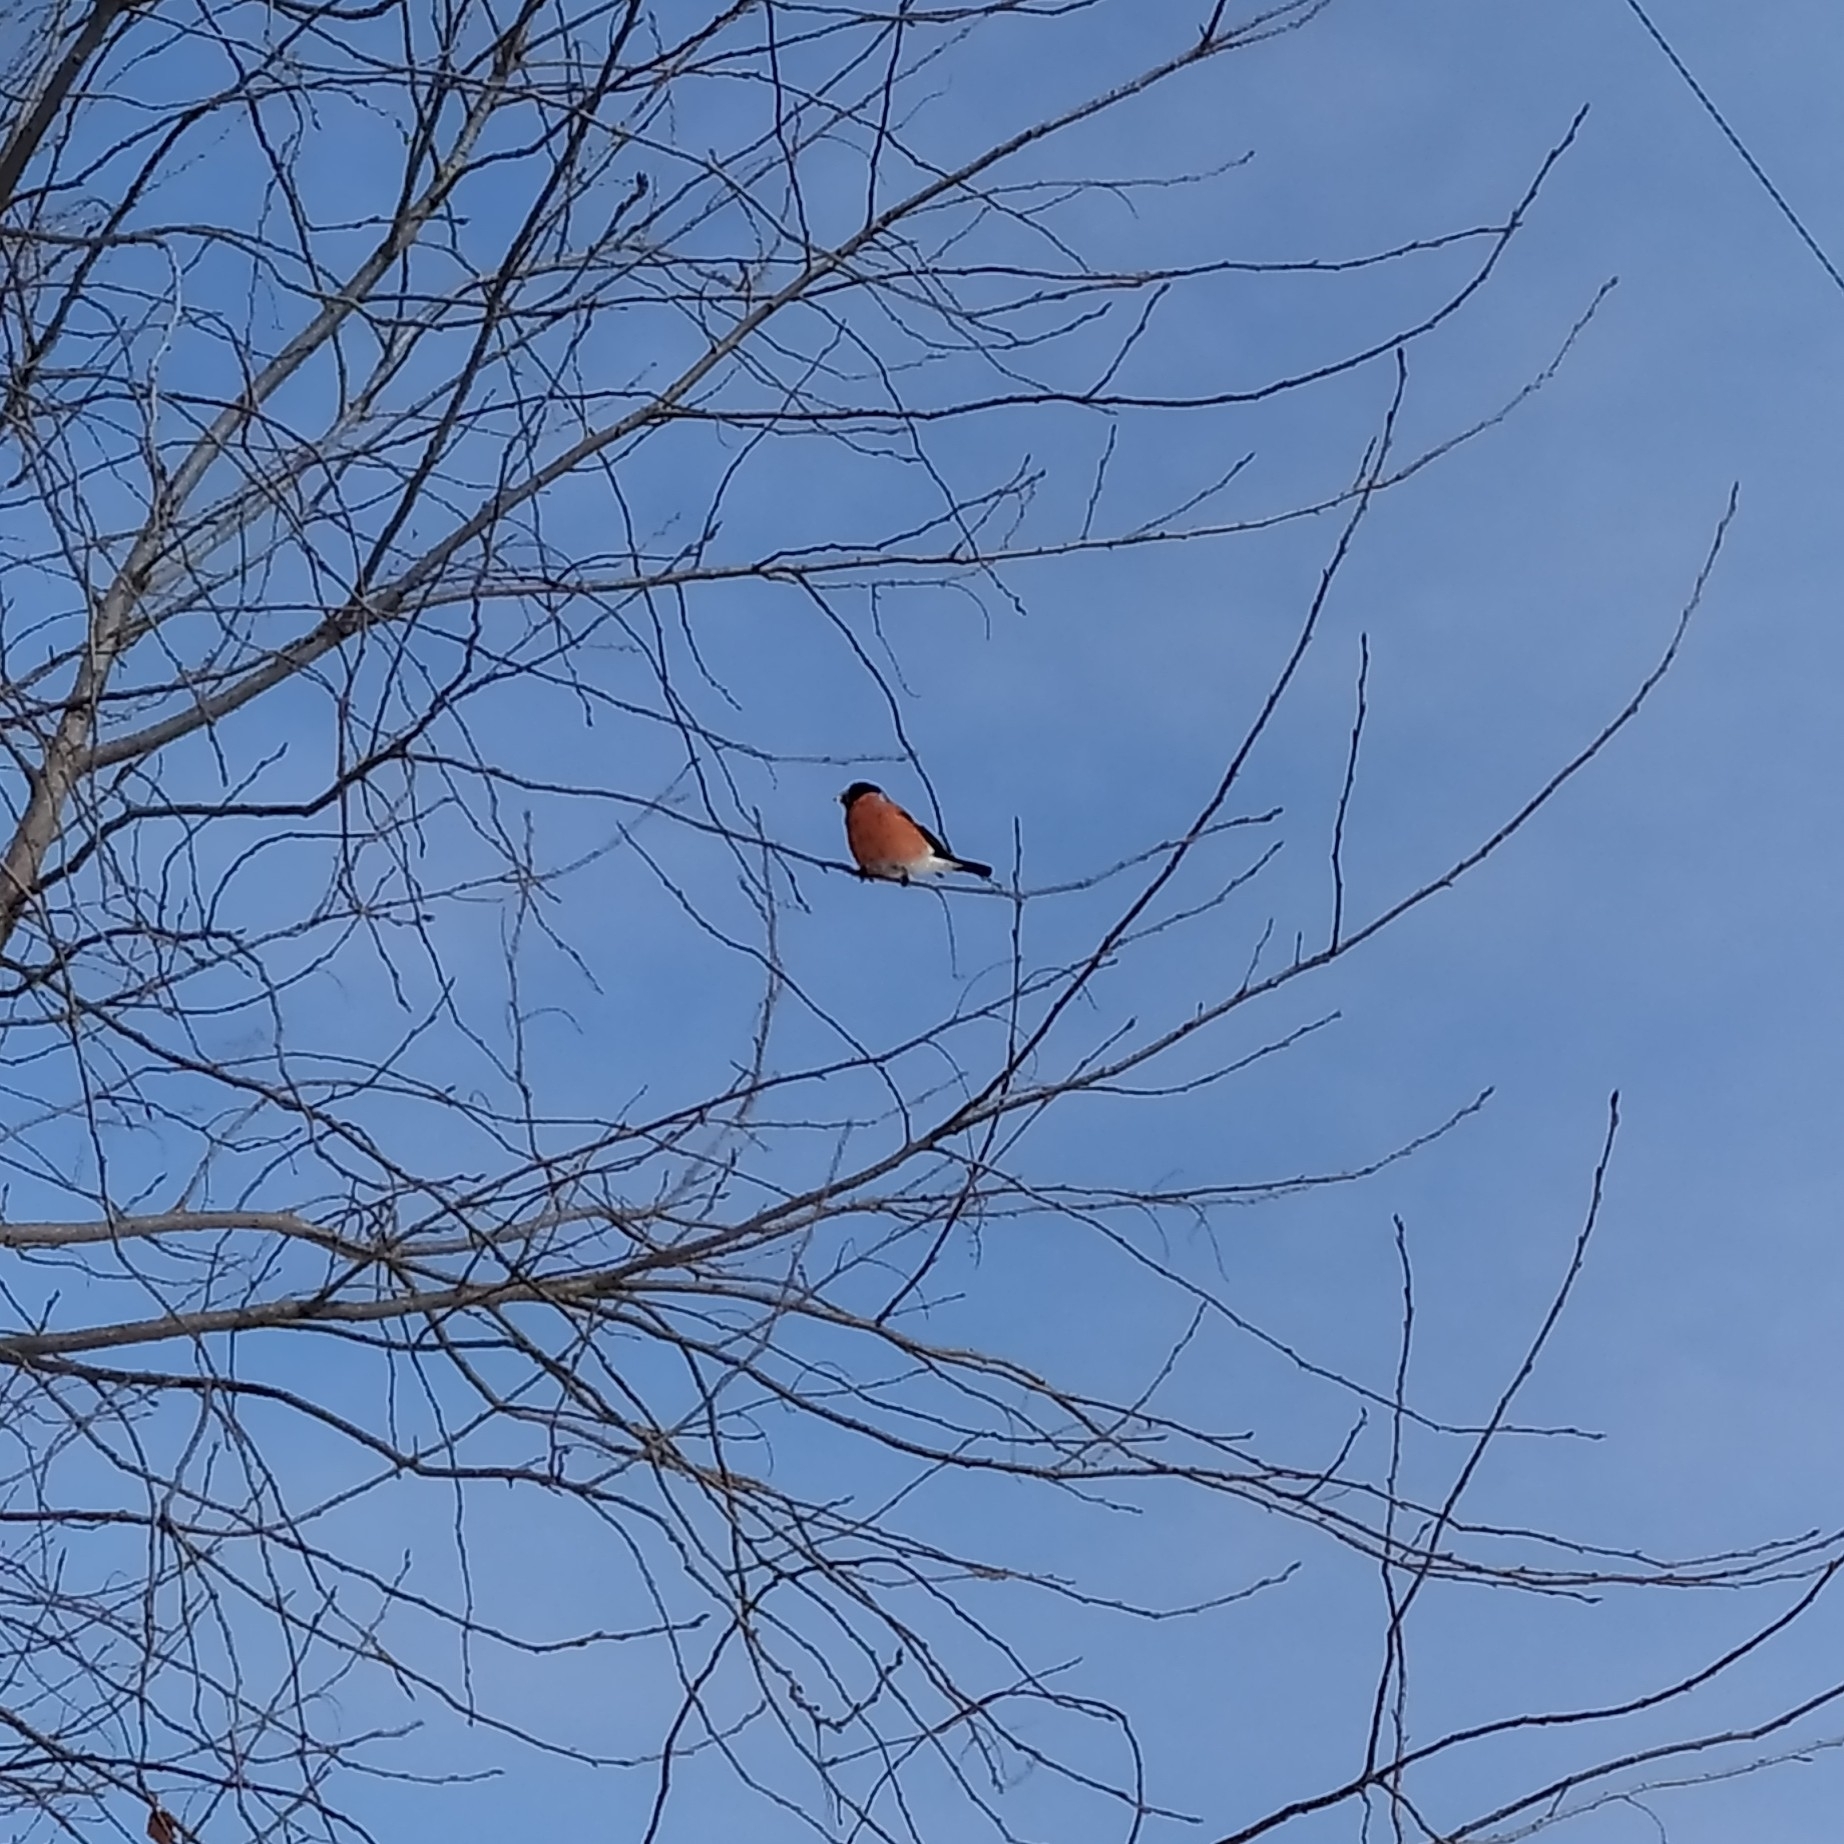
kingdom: Animalia
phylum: Chordata
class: Aves
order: Passeriformes
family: Fringillidae
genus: Pyrrhula
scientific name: Pyrrhula pyrrhula
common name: Eurasian bullfinch
